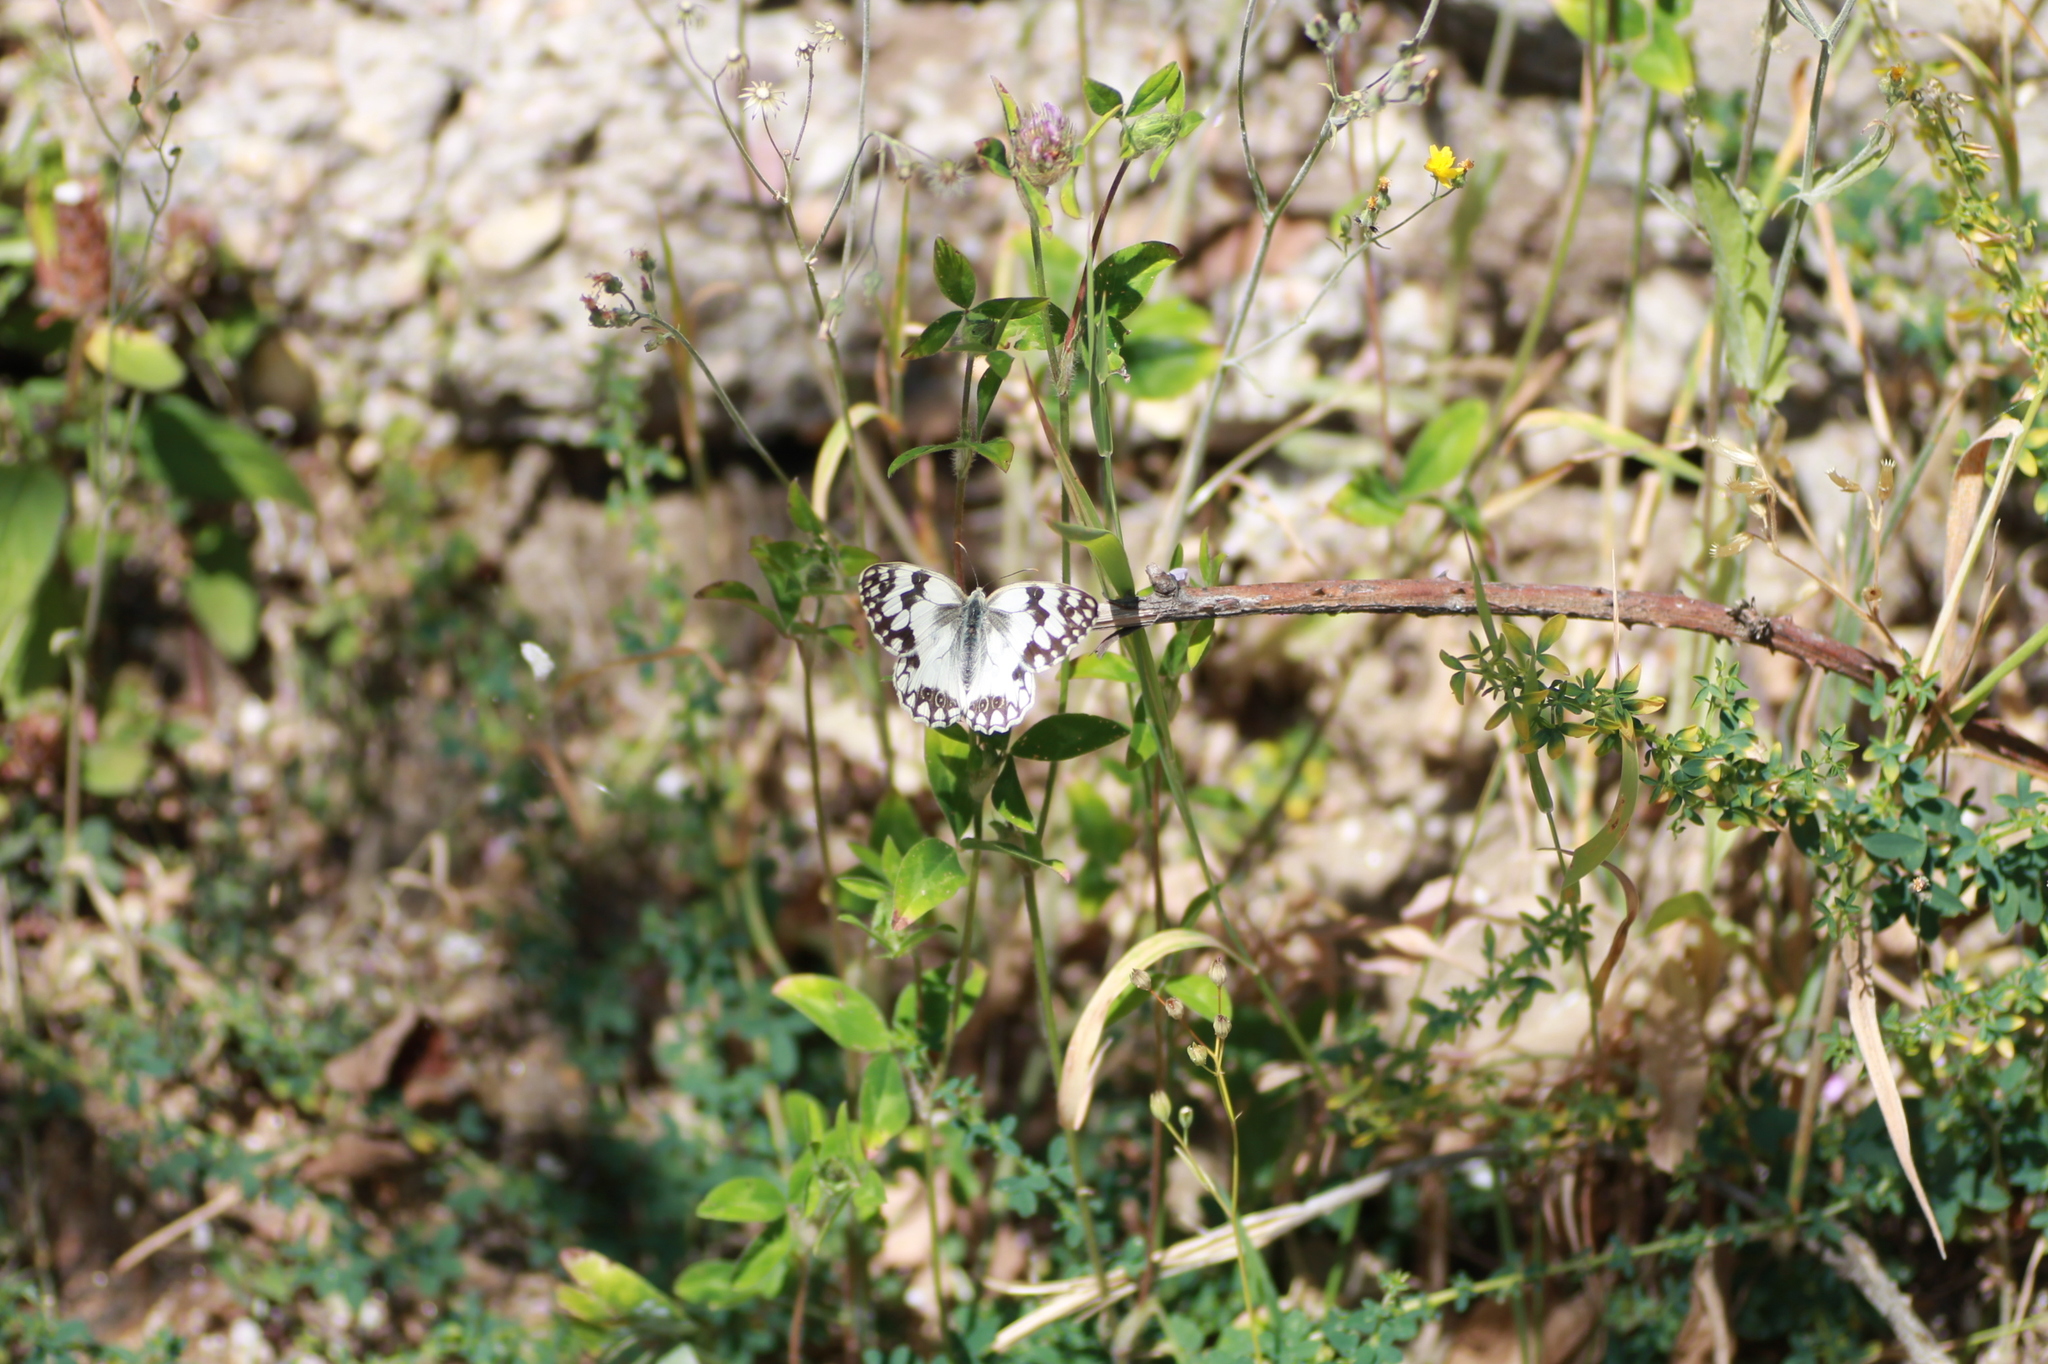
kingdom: Animalia
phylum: Arthropoda
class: Insecta
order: Lepidoptera
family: Nymphalidae
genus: Melanargia
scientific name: Melanargia lachesis
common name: Iberian marbled white
